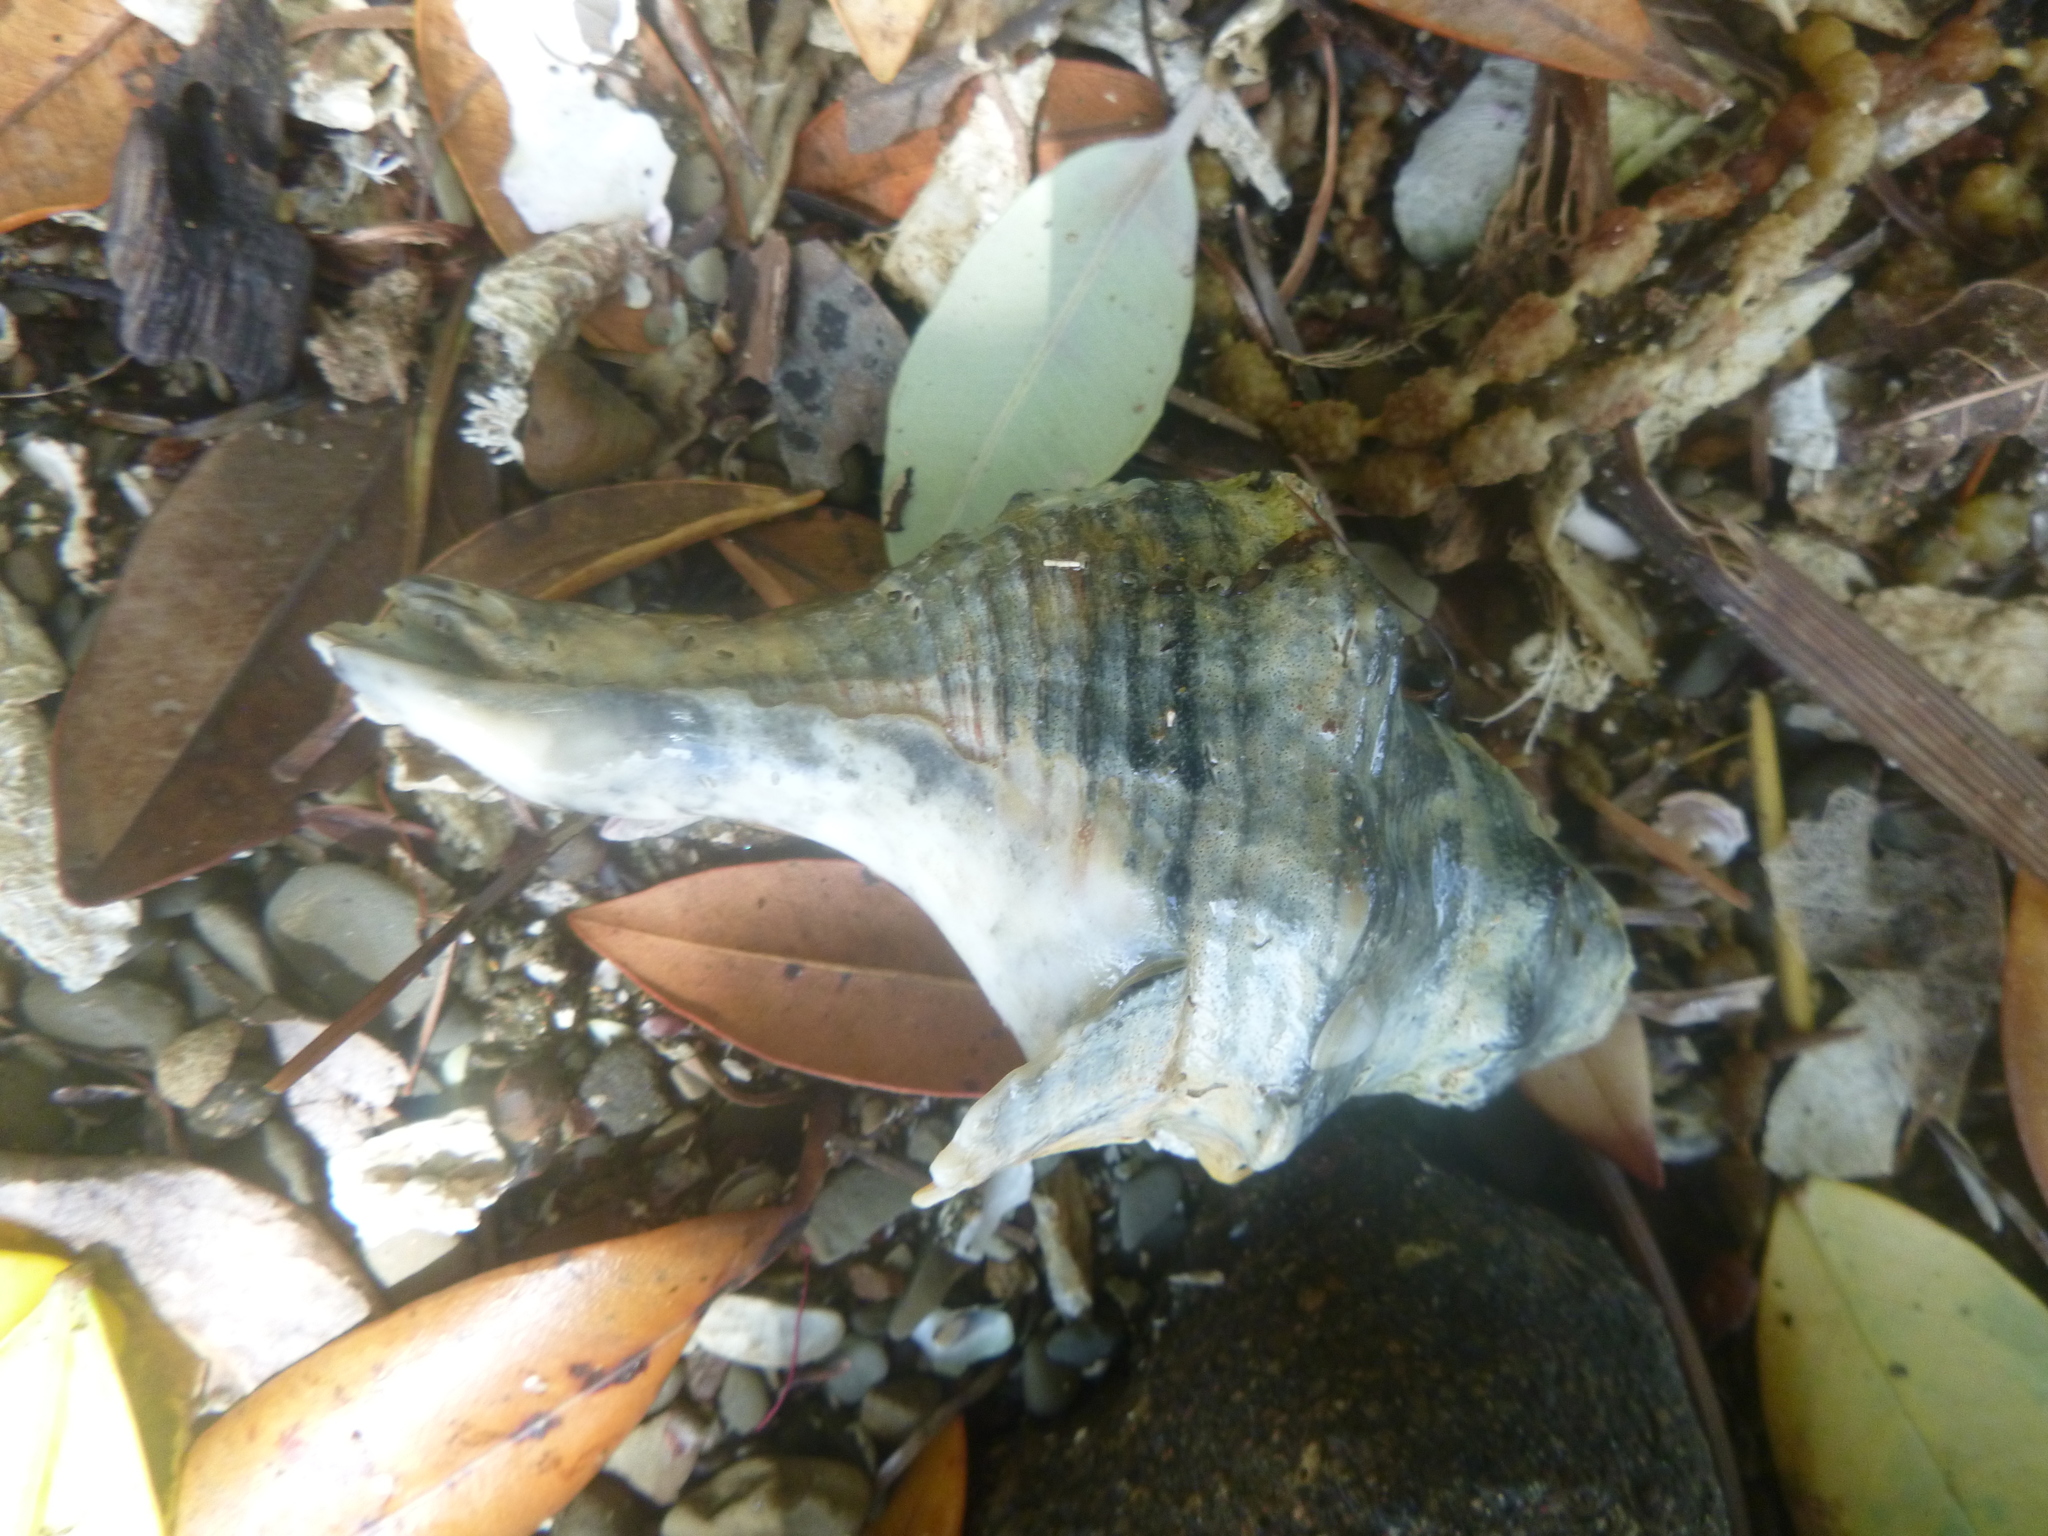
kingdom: Animalia
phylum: Mollusca
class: Gastropoda
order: Neogastropoda
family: Austrosiphonidae
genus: Penion
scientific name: Penion sulcatus
